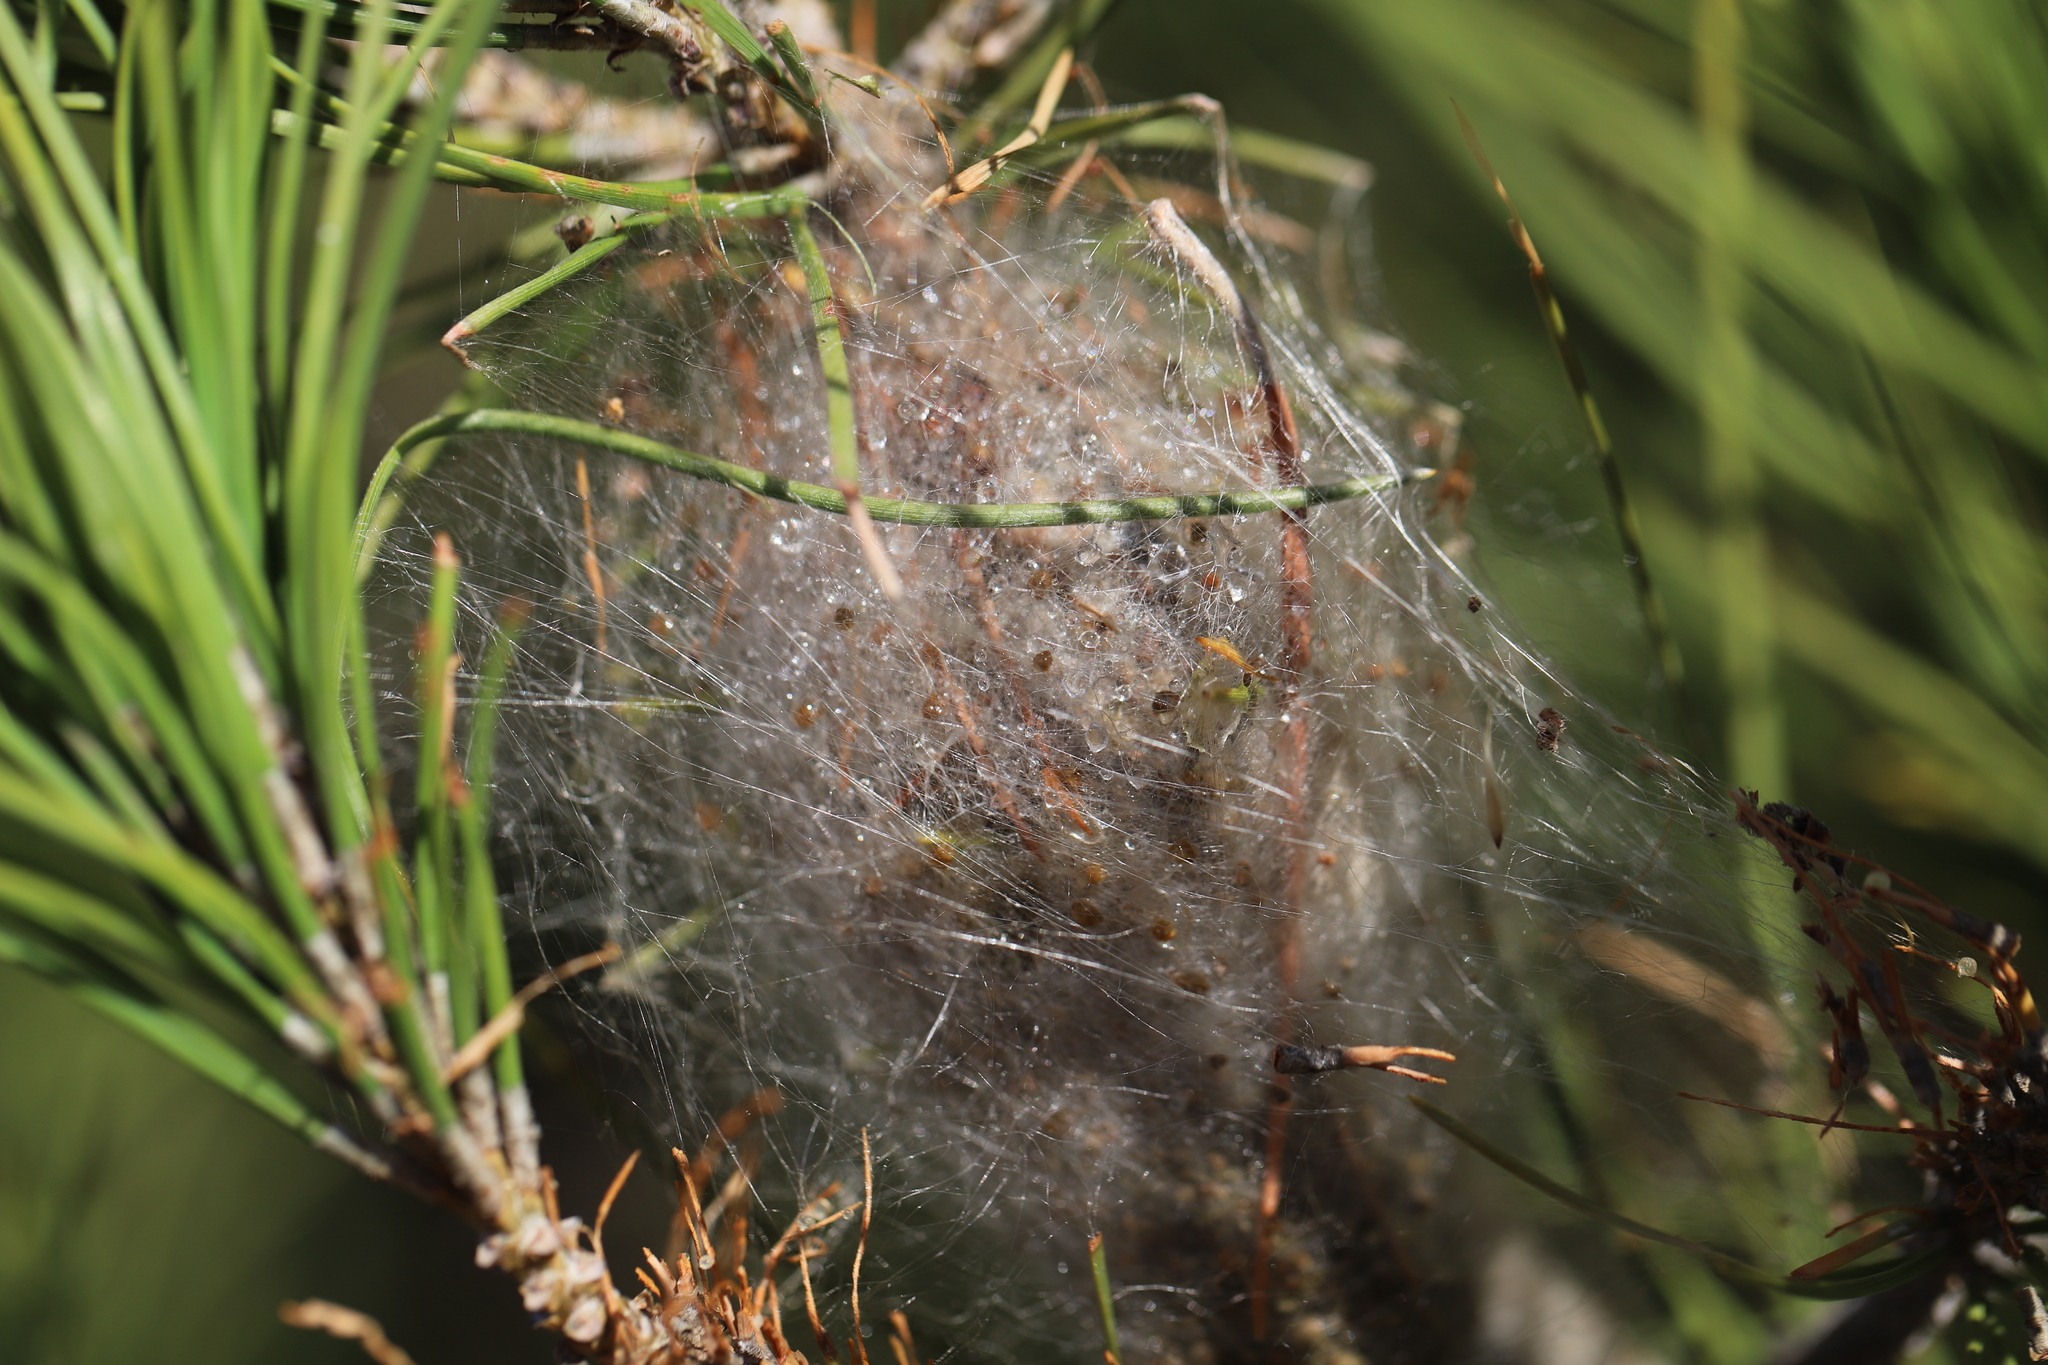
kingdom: Animalia
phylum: Arthropoda
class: Insecta
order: Lepidoptera
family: Notodontidae
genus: Thaumetopoea
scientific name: Thaumetopoea pityocampa
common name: Pine processionary
